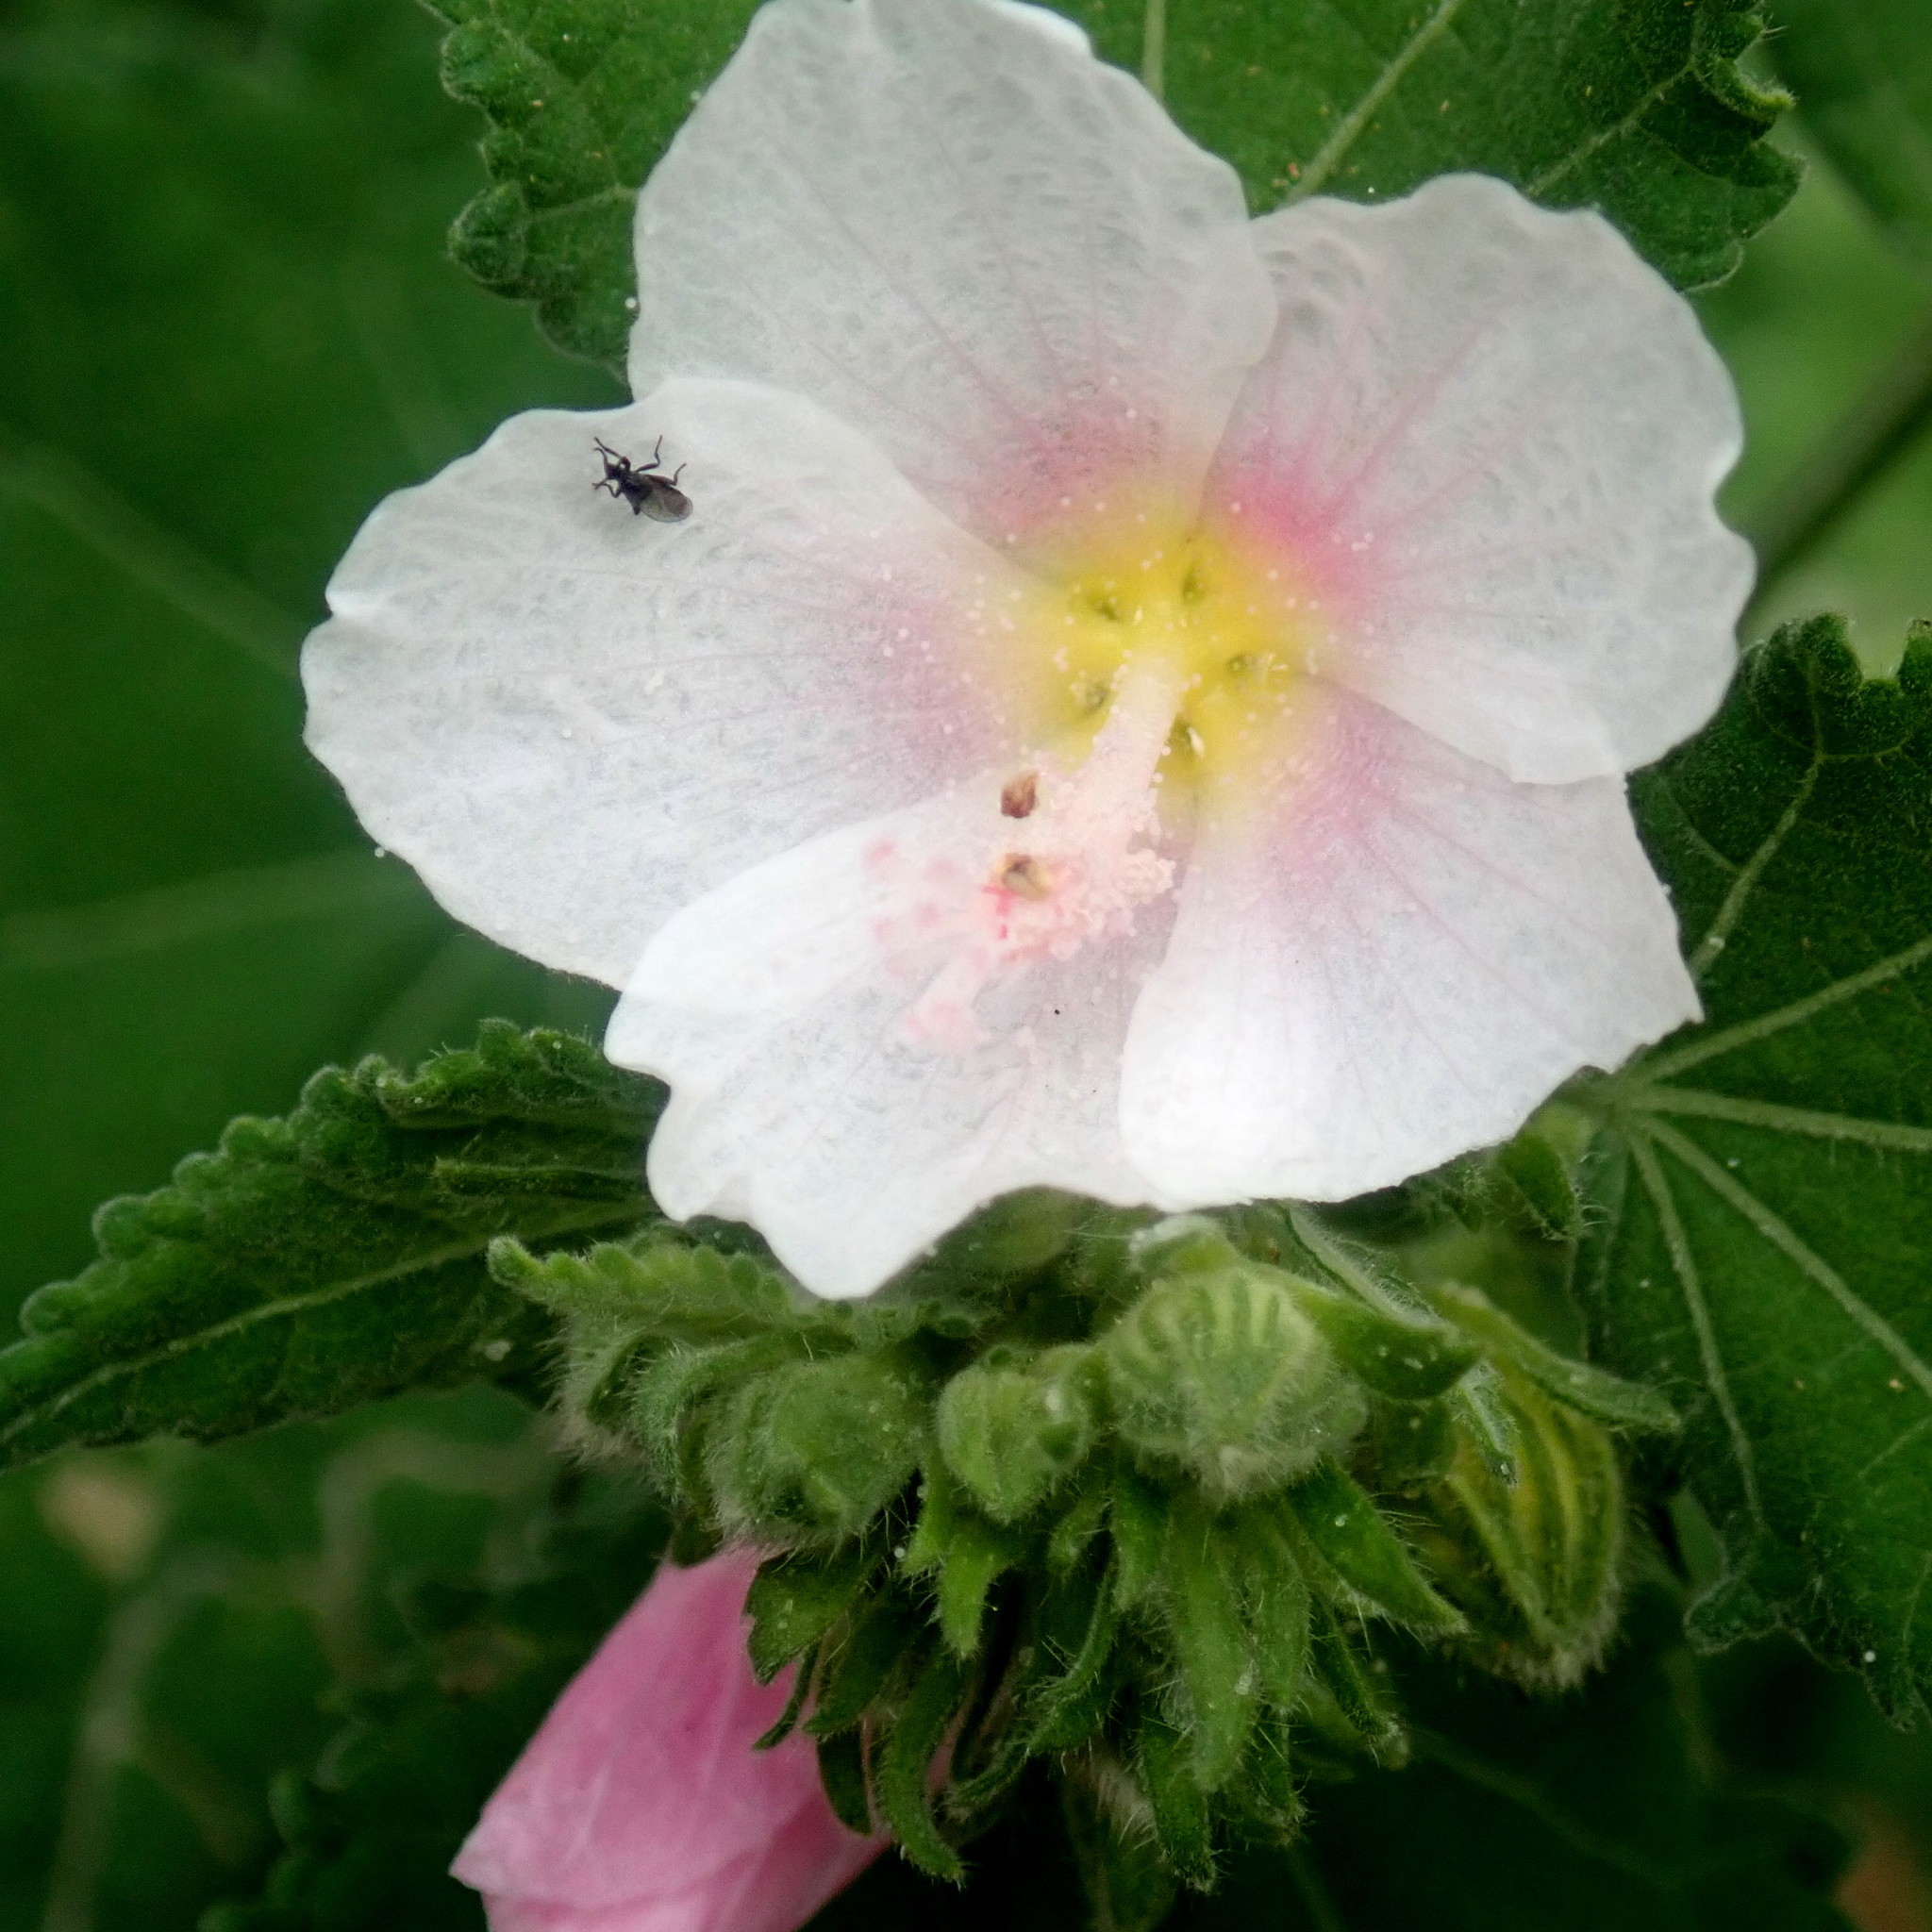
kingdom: Plantae
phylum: Tracheophyta
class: Magnoliopsida
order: Malvales
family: Malvaceae
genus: Pavonia
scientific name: Pavonia columella
